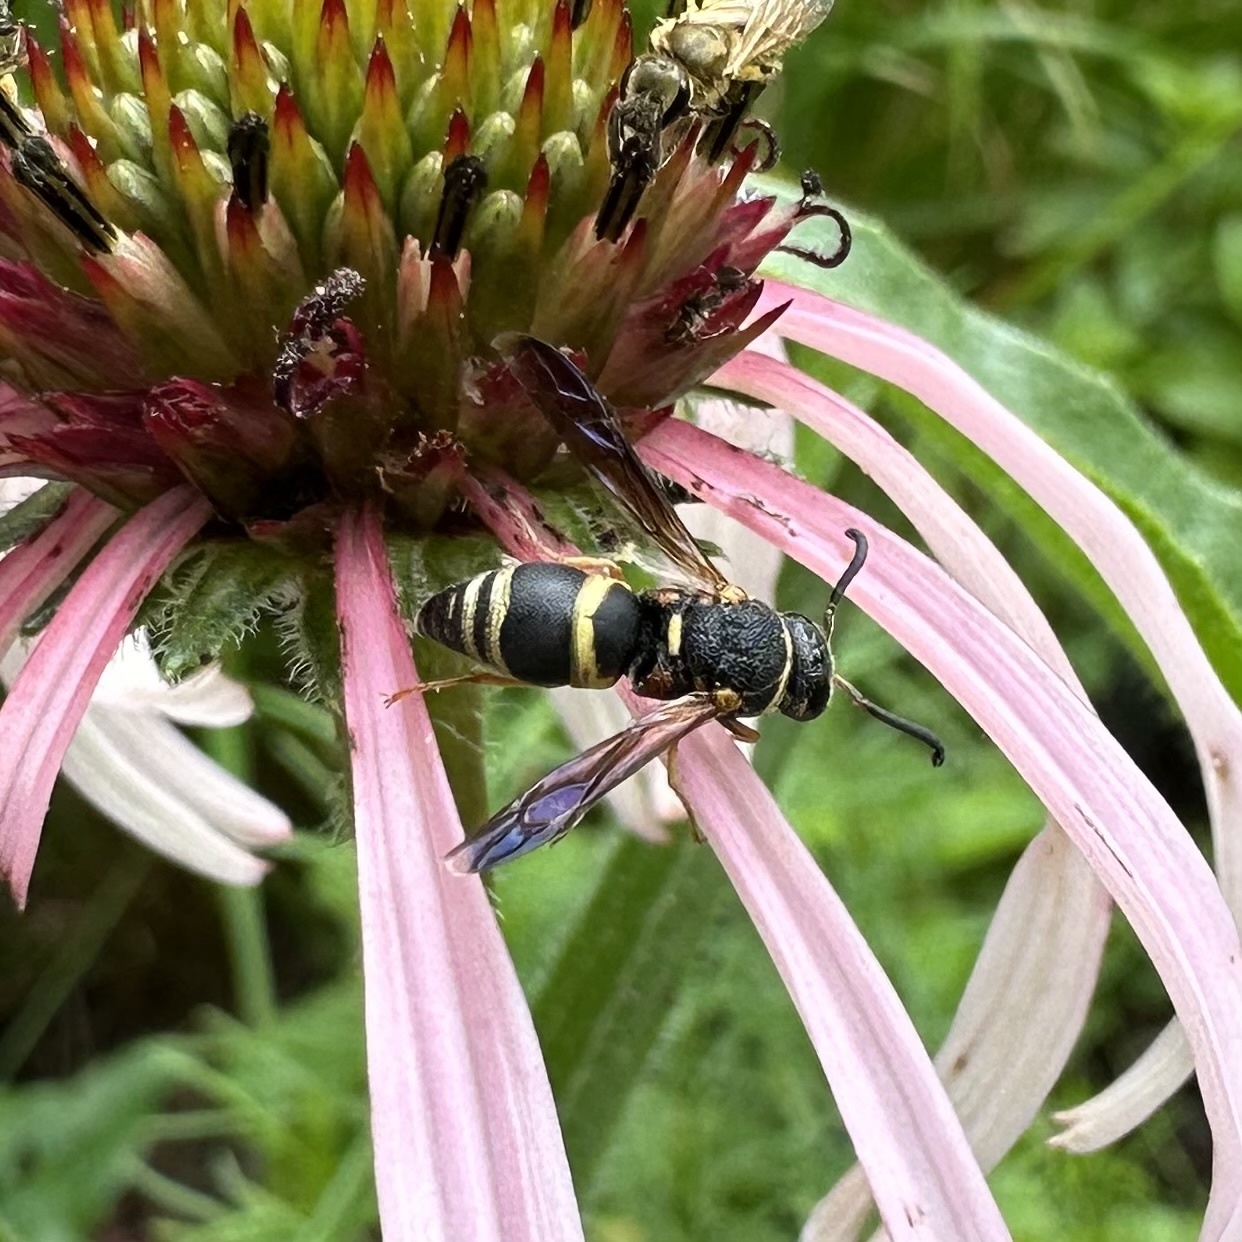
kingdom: Animalia
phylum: Arthropoda
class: Insecta
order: Hymenoptera
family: Eumenidae
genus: Euodynerus
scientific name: Euodynerus hidalgo
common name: Wasp
